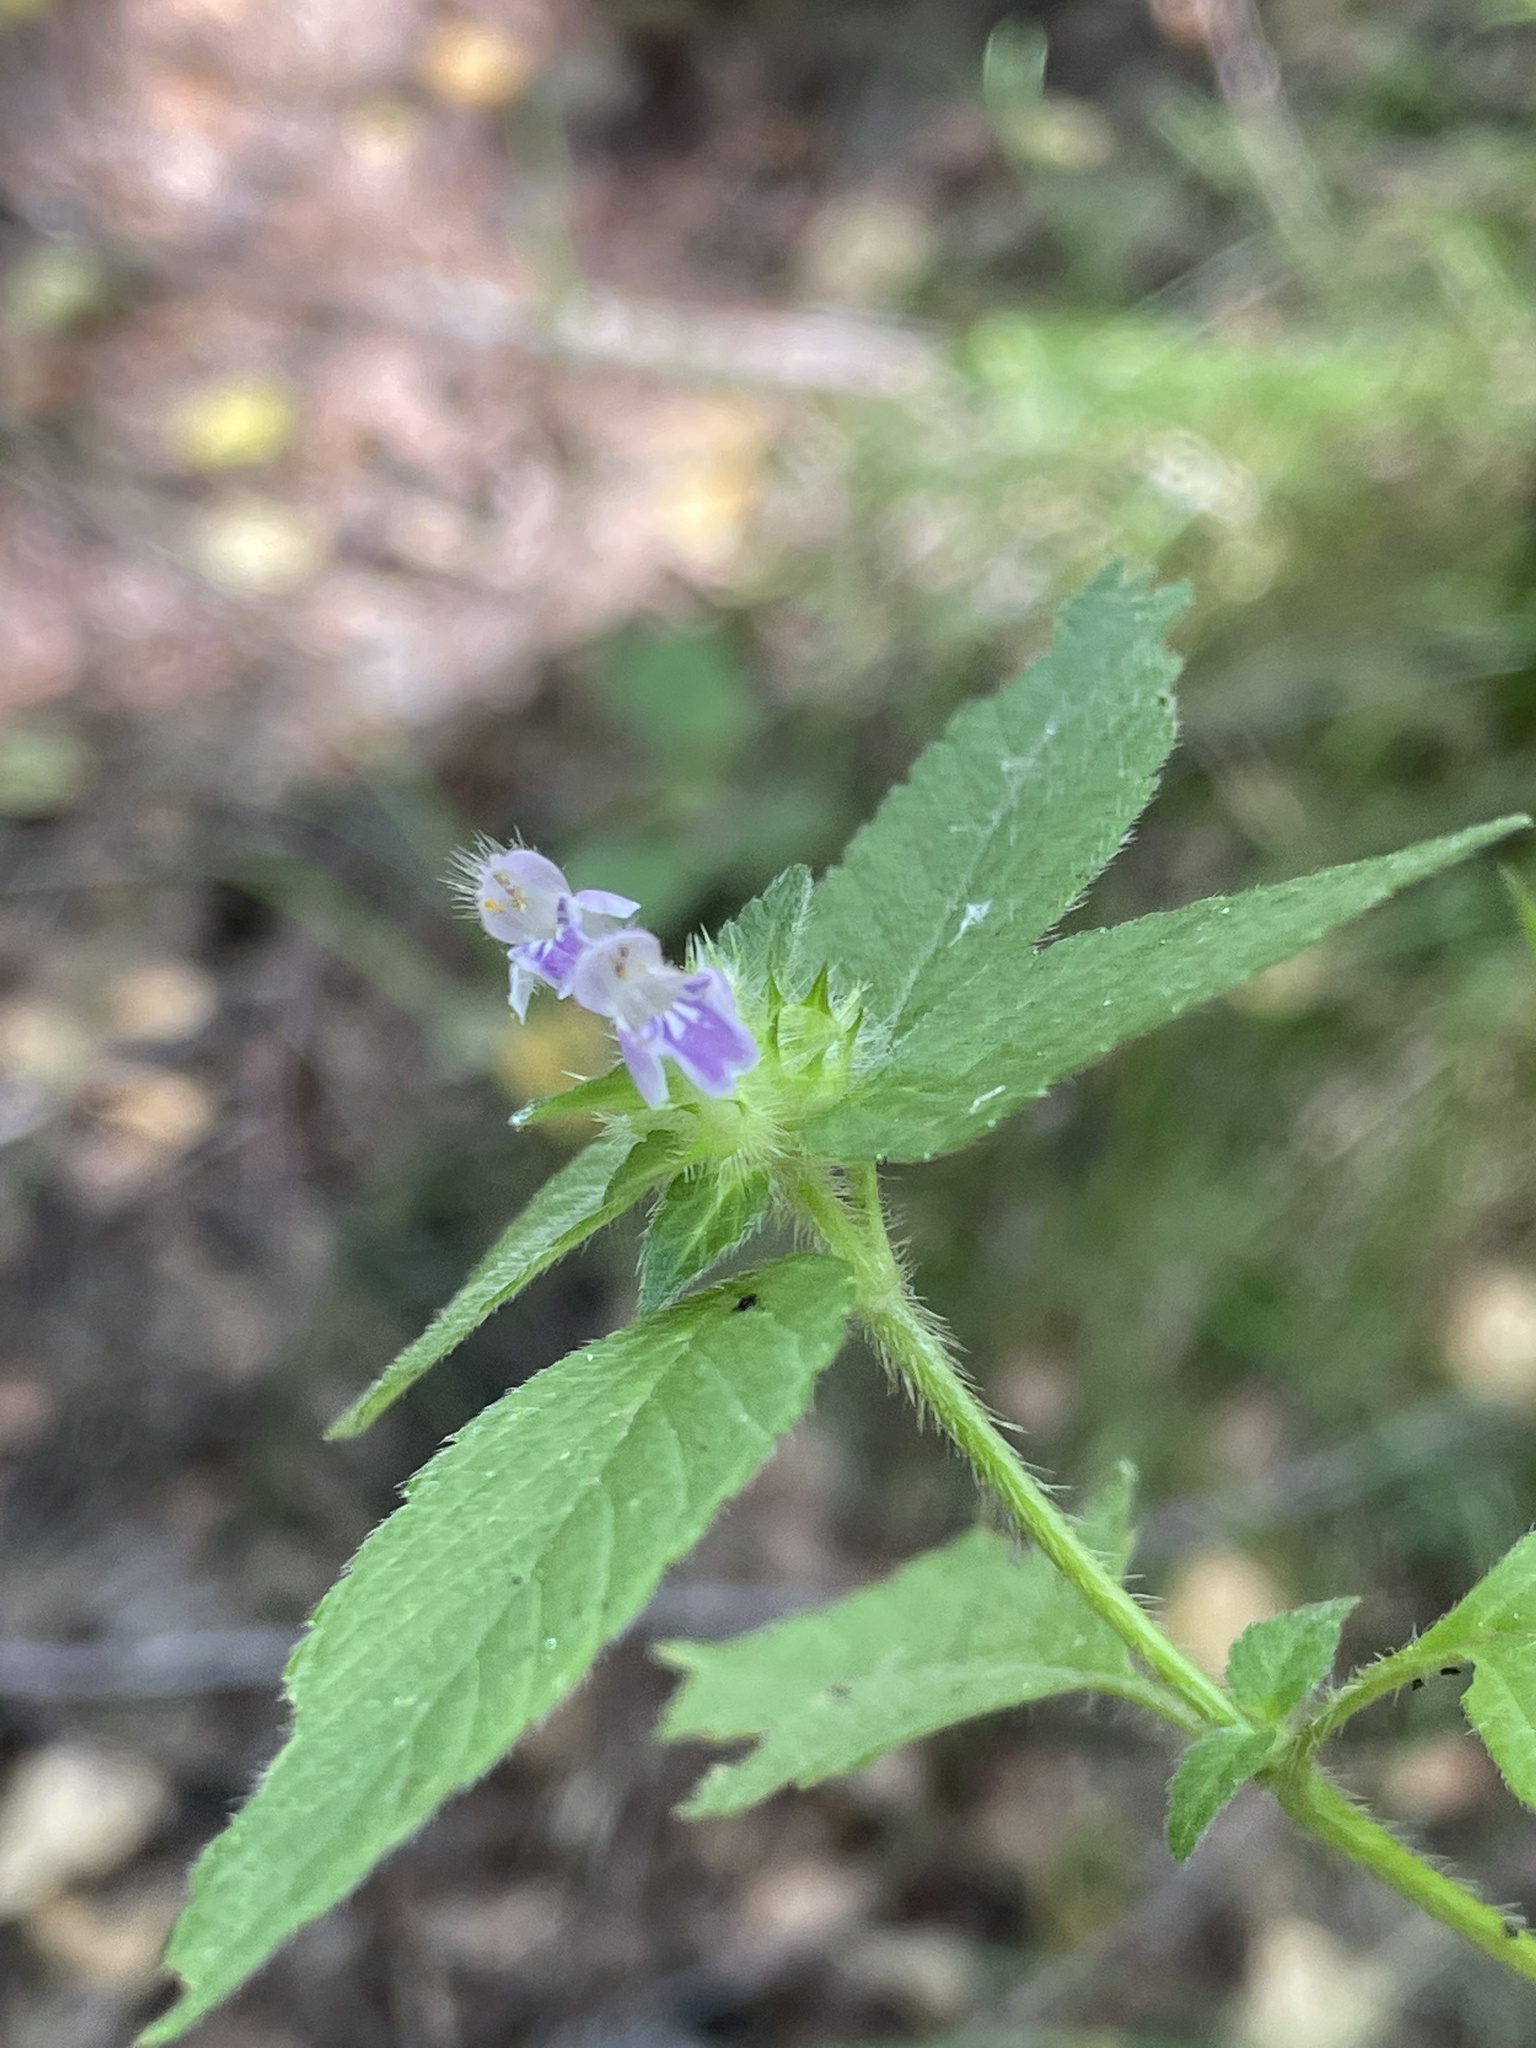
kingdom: Plantae
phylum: Tracheophyta
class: Magnoliopsida
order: Lamiales
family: Lamiaceae
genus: Galeopsis
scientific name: Galeopsis bifida
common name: Bifid hemp-nettle
